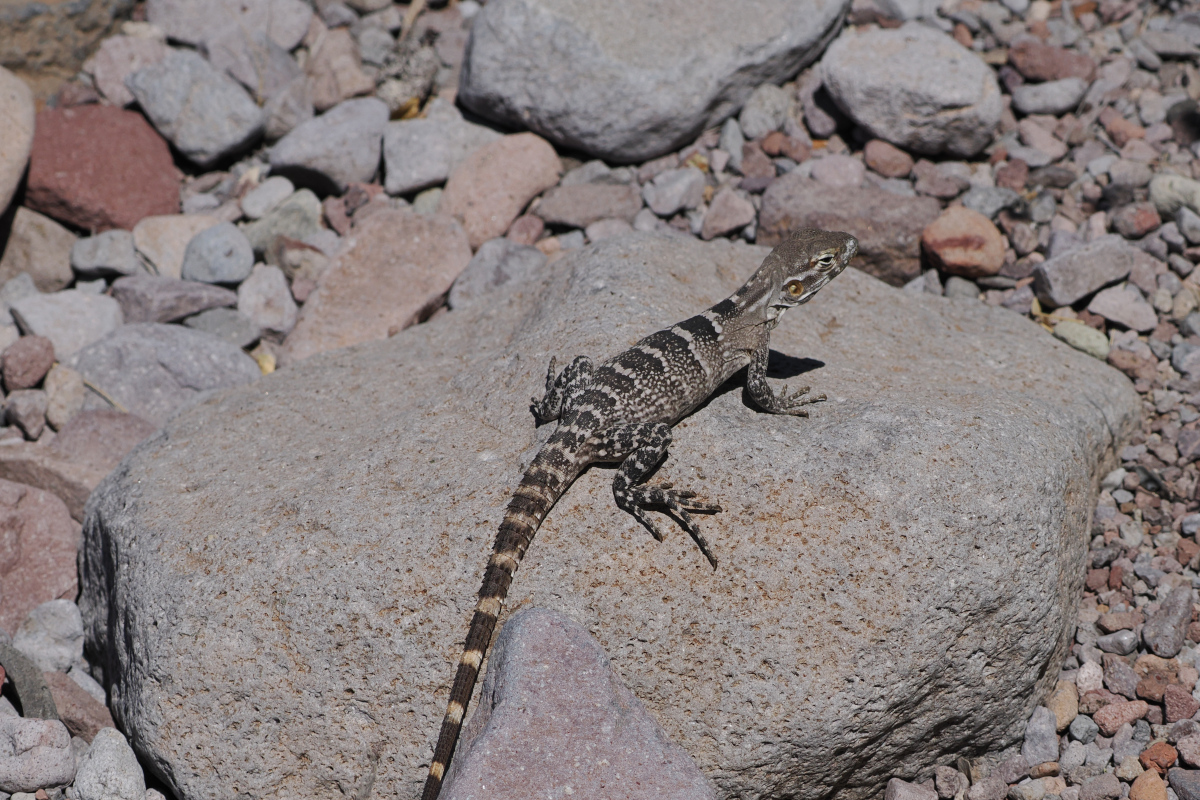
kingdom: Animalia
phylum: Chordata
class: Squamata
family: Iguanidae
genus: Ctenosaura
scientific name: Ctenosaura conspicuosa
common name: San esteban spinytail iguana
